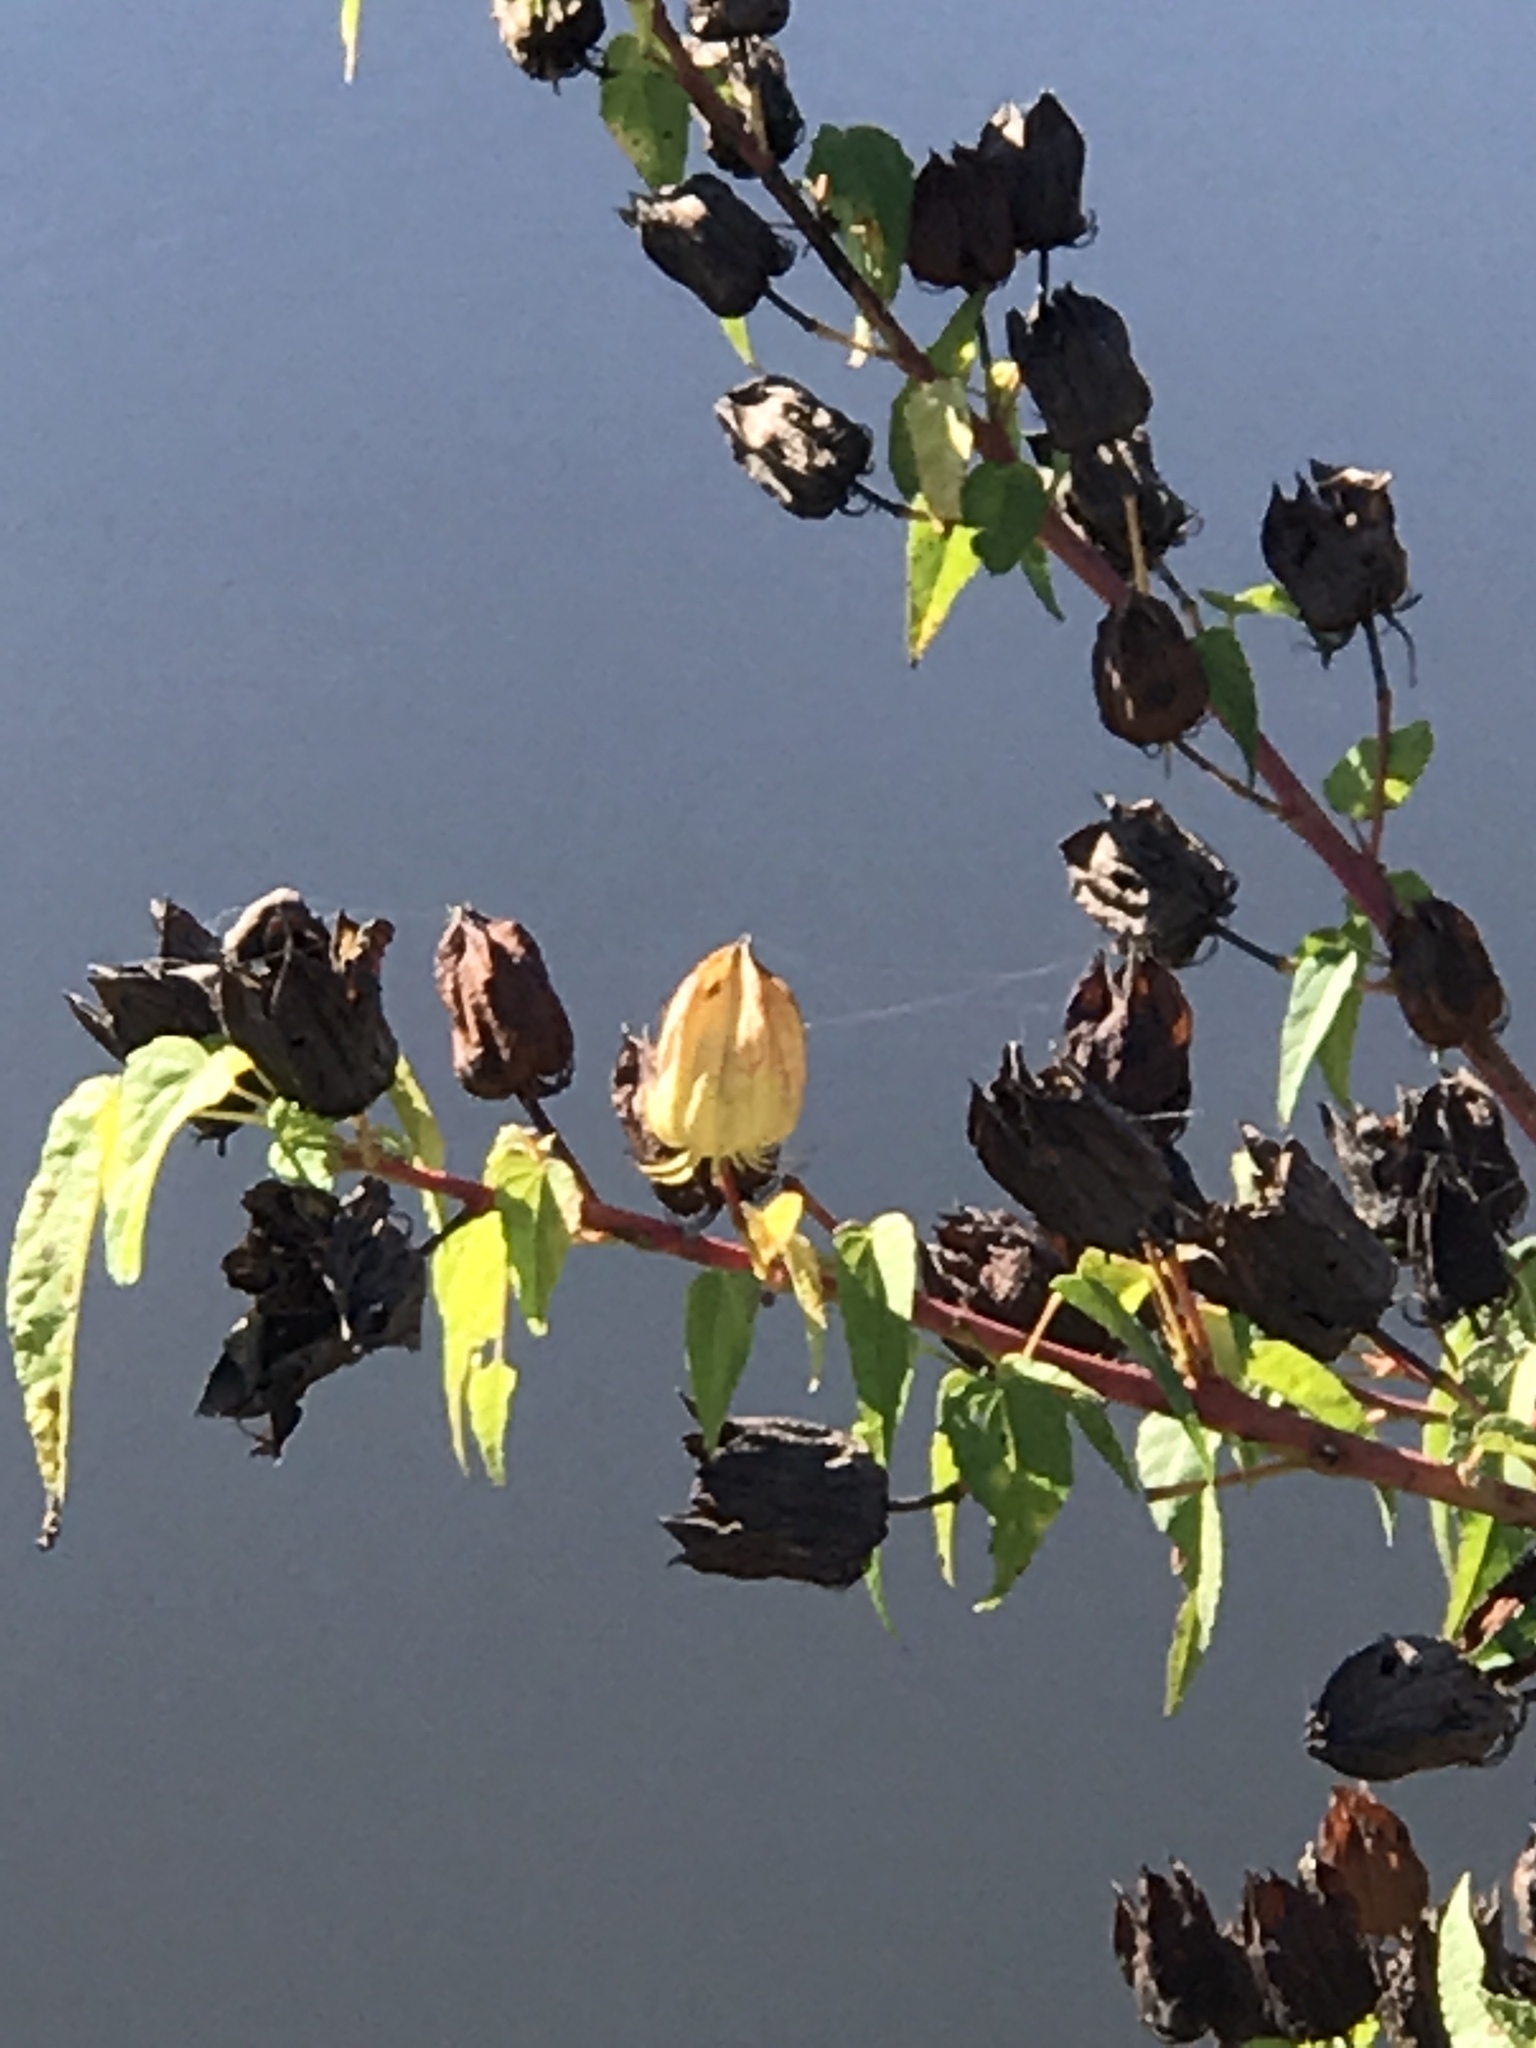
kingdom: Plantae
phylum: Tracheophyta
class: Magnoliopsida
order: Malvales
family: Malvaceae
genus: Hibiscus
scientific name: Hibiscus laevis
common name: Scarlet rose-mallow
